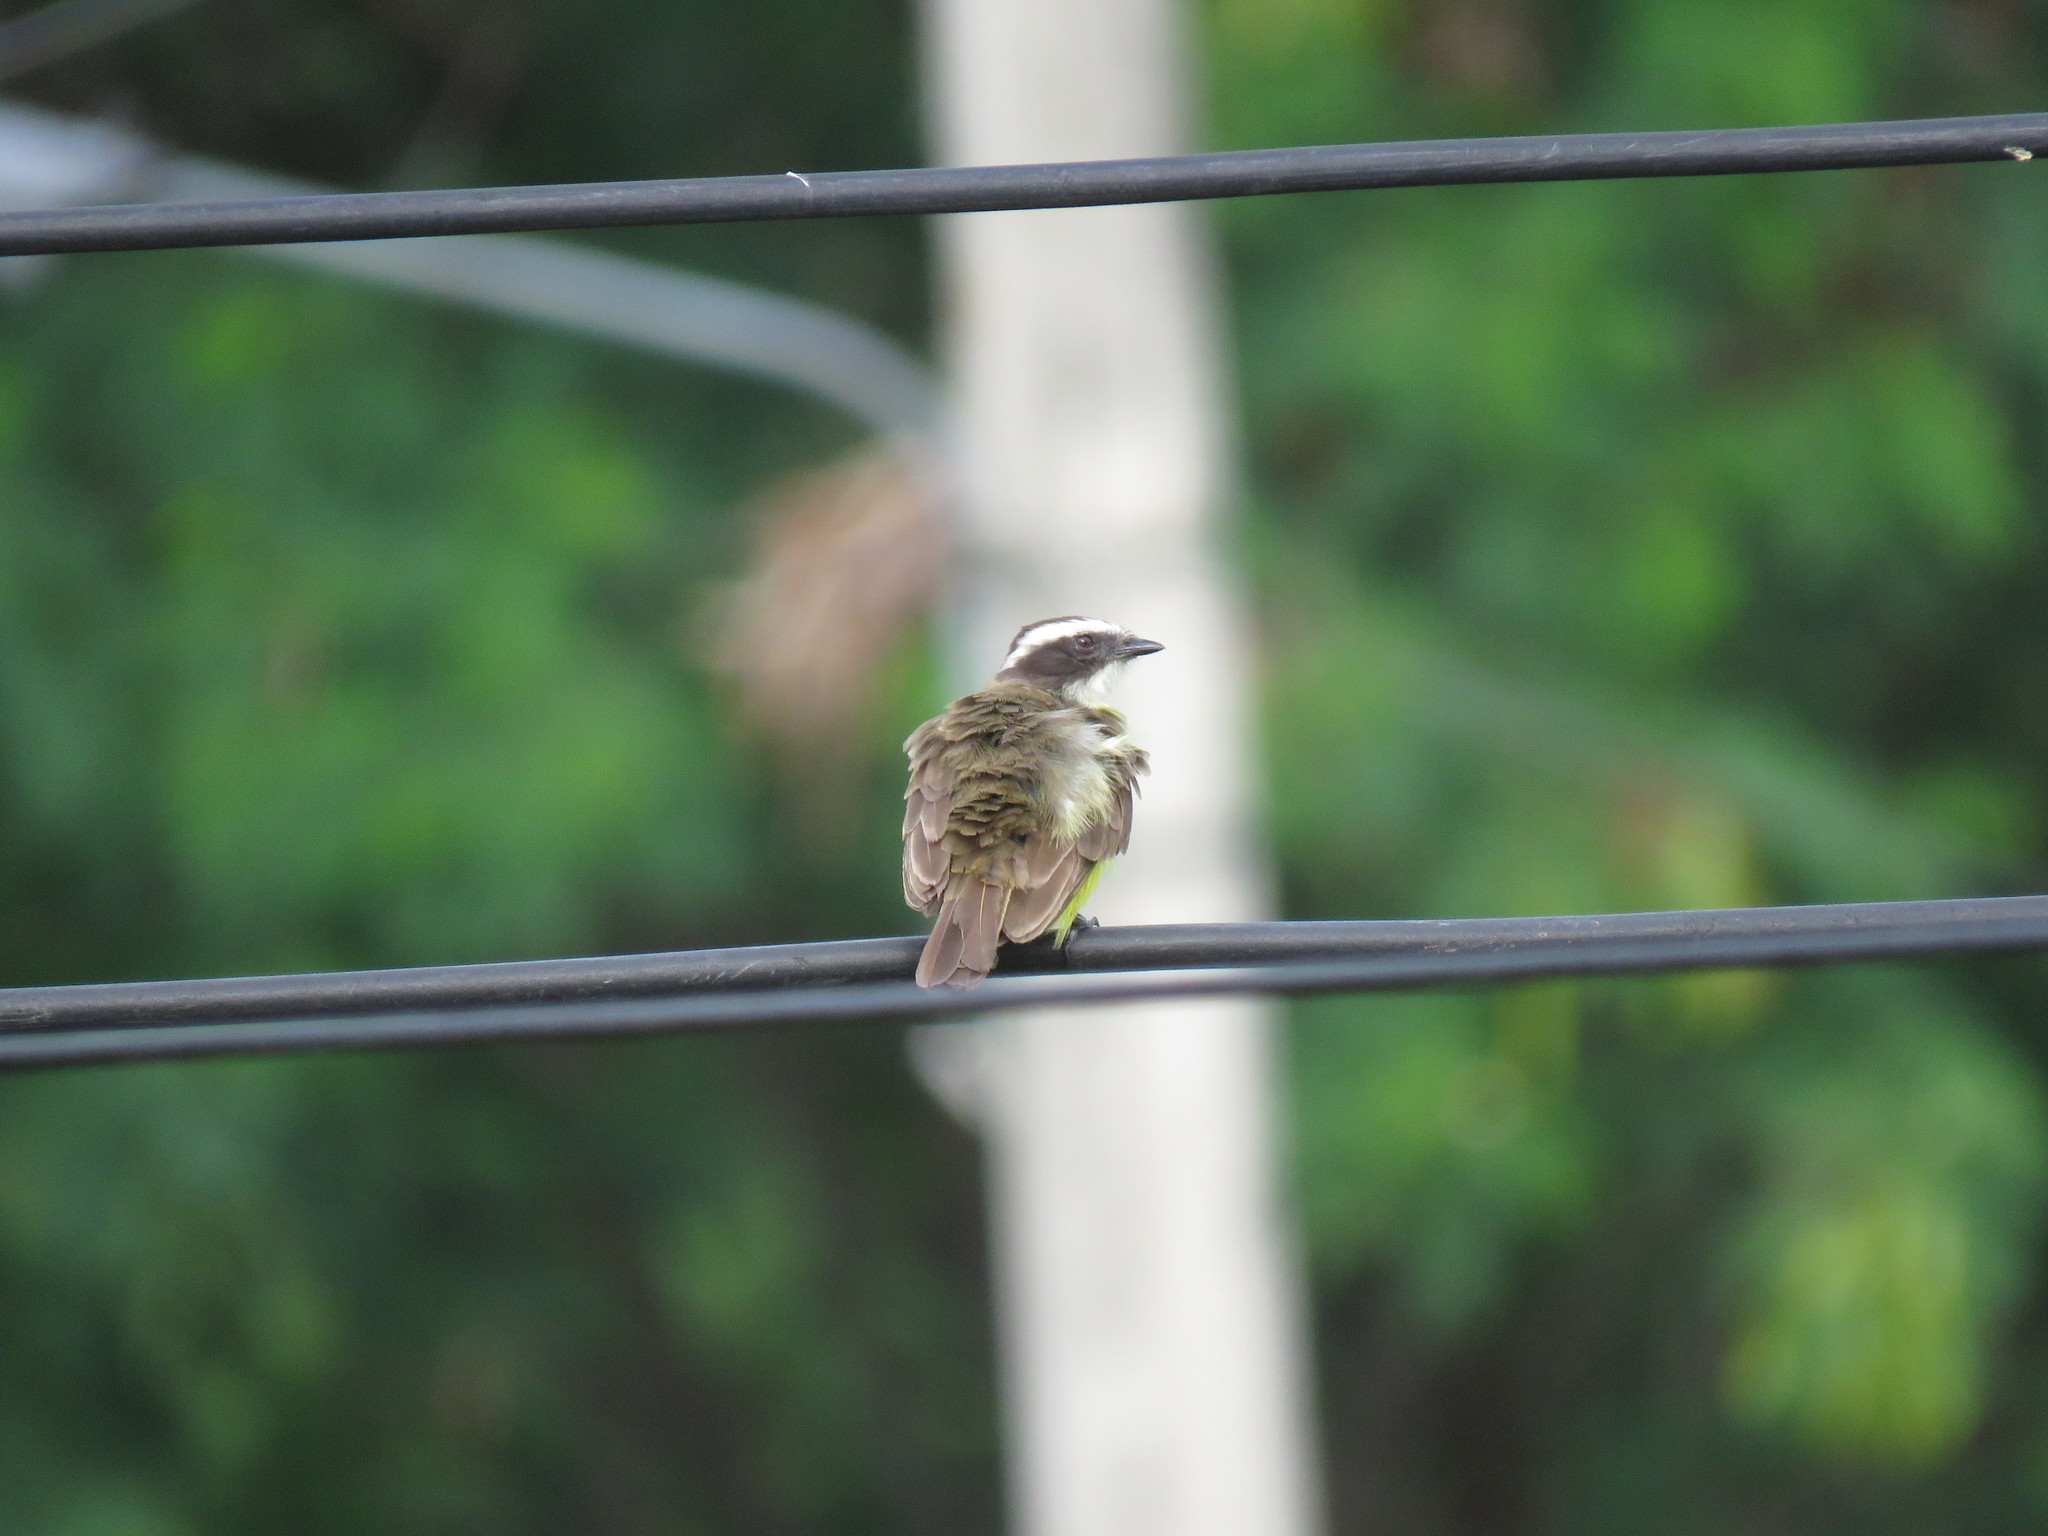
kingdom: Animalia
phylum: Chordata
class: Aves
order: Passeriformes
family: Tyrannidae
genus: Myiozetetes
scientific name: Myiozetetes similis
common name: Social flycatcher
